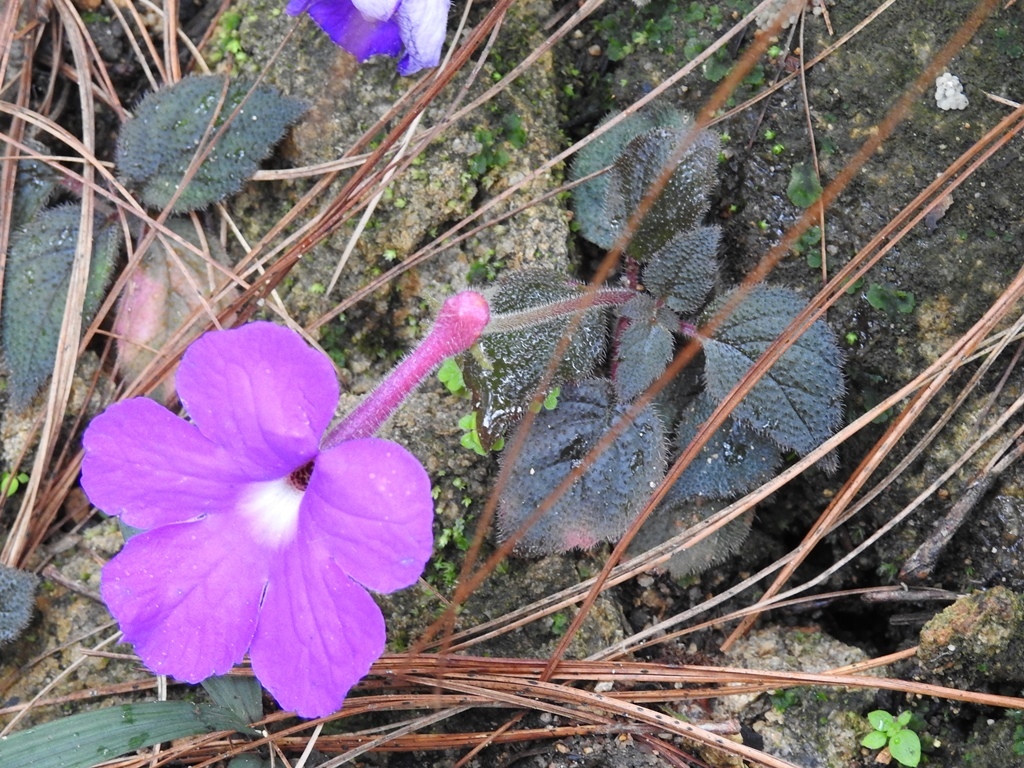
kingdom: Plantae
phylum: Tracheophyta
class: Magnoliopsida
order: Lamiales
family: Gesneriaceae
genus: Achimenes
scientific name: Achimenes grandiflora
